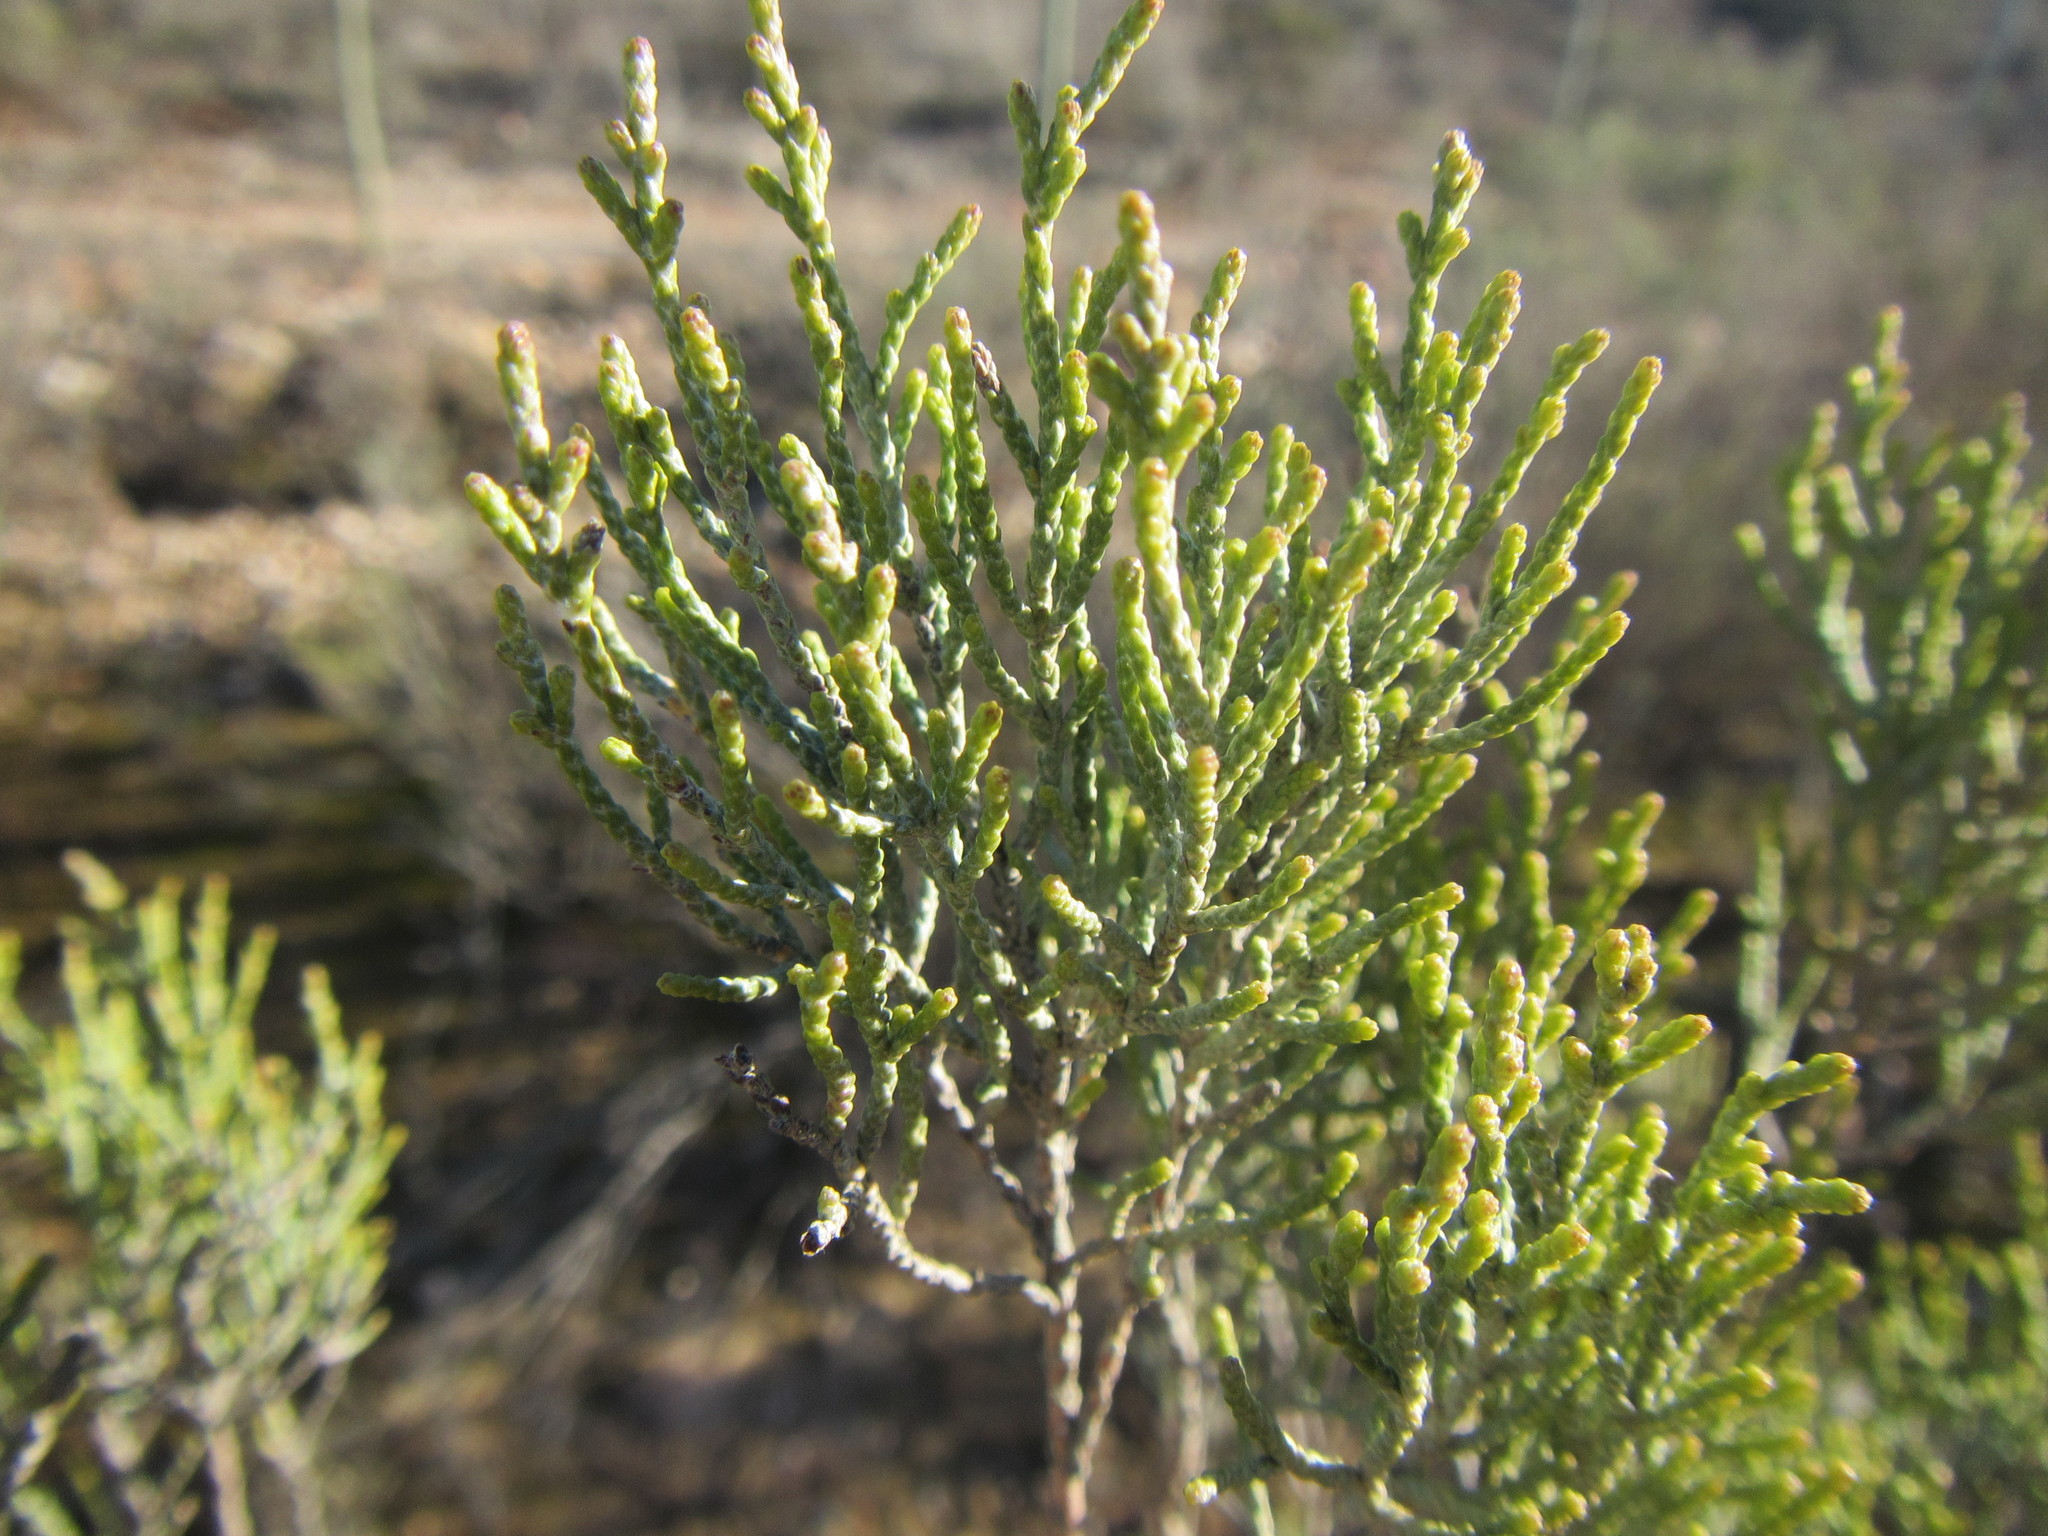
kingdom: Plantae
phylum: Tracheophyta
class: Magnoliopsida
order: Asterales
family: Asteraceae
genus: Dicerothamnus
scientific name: Dicerothamnus rhinocerotis
